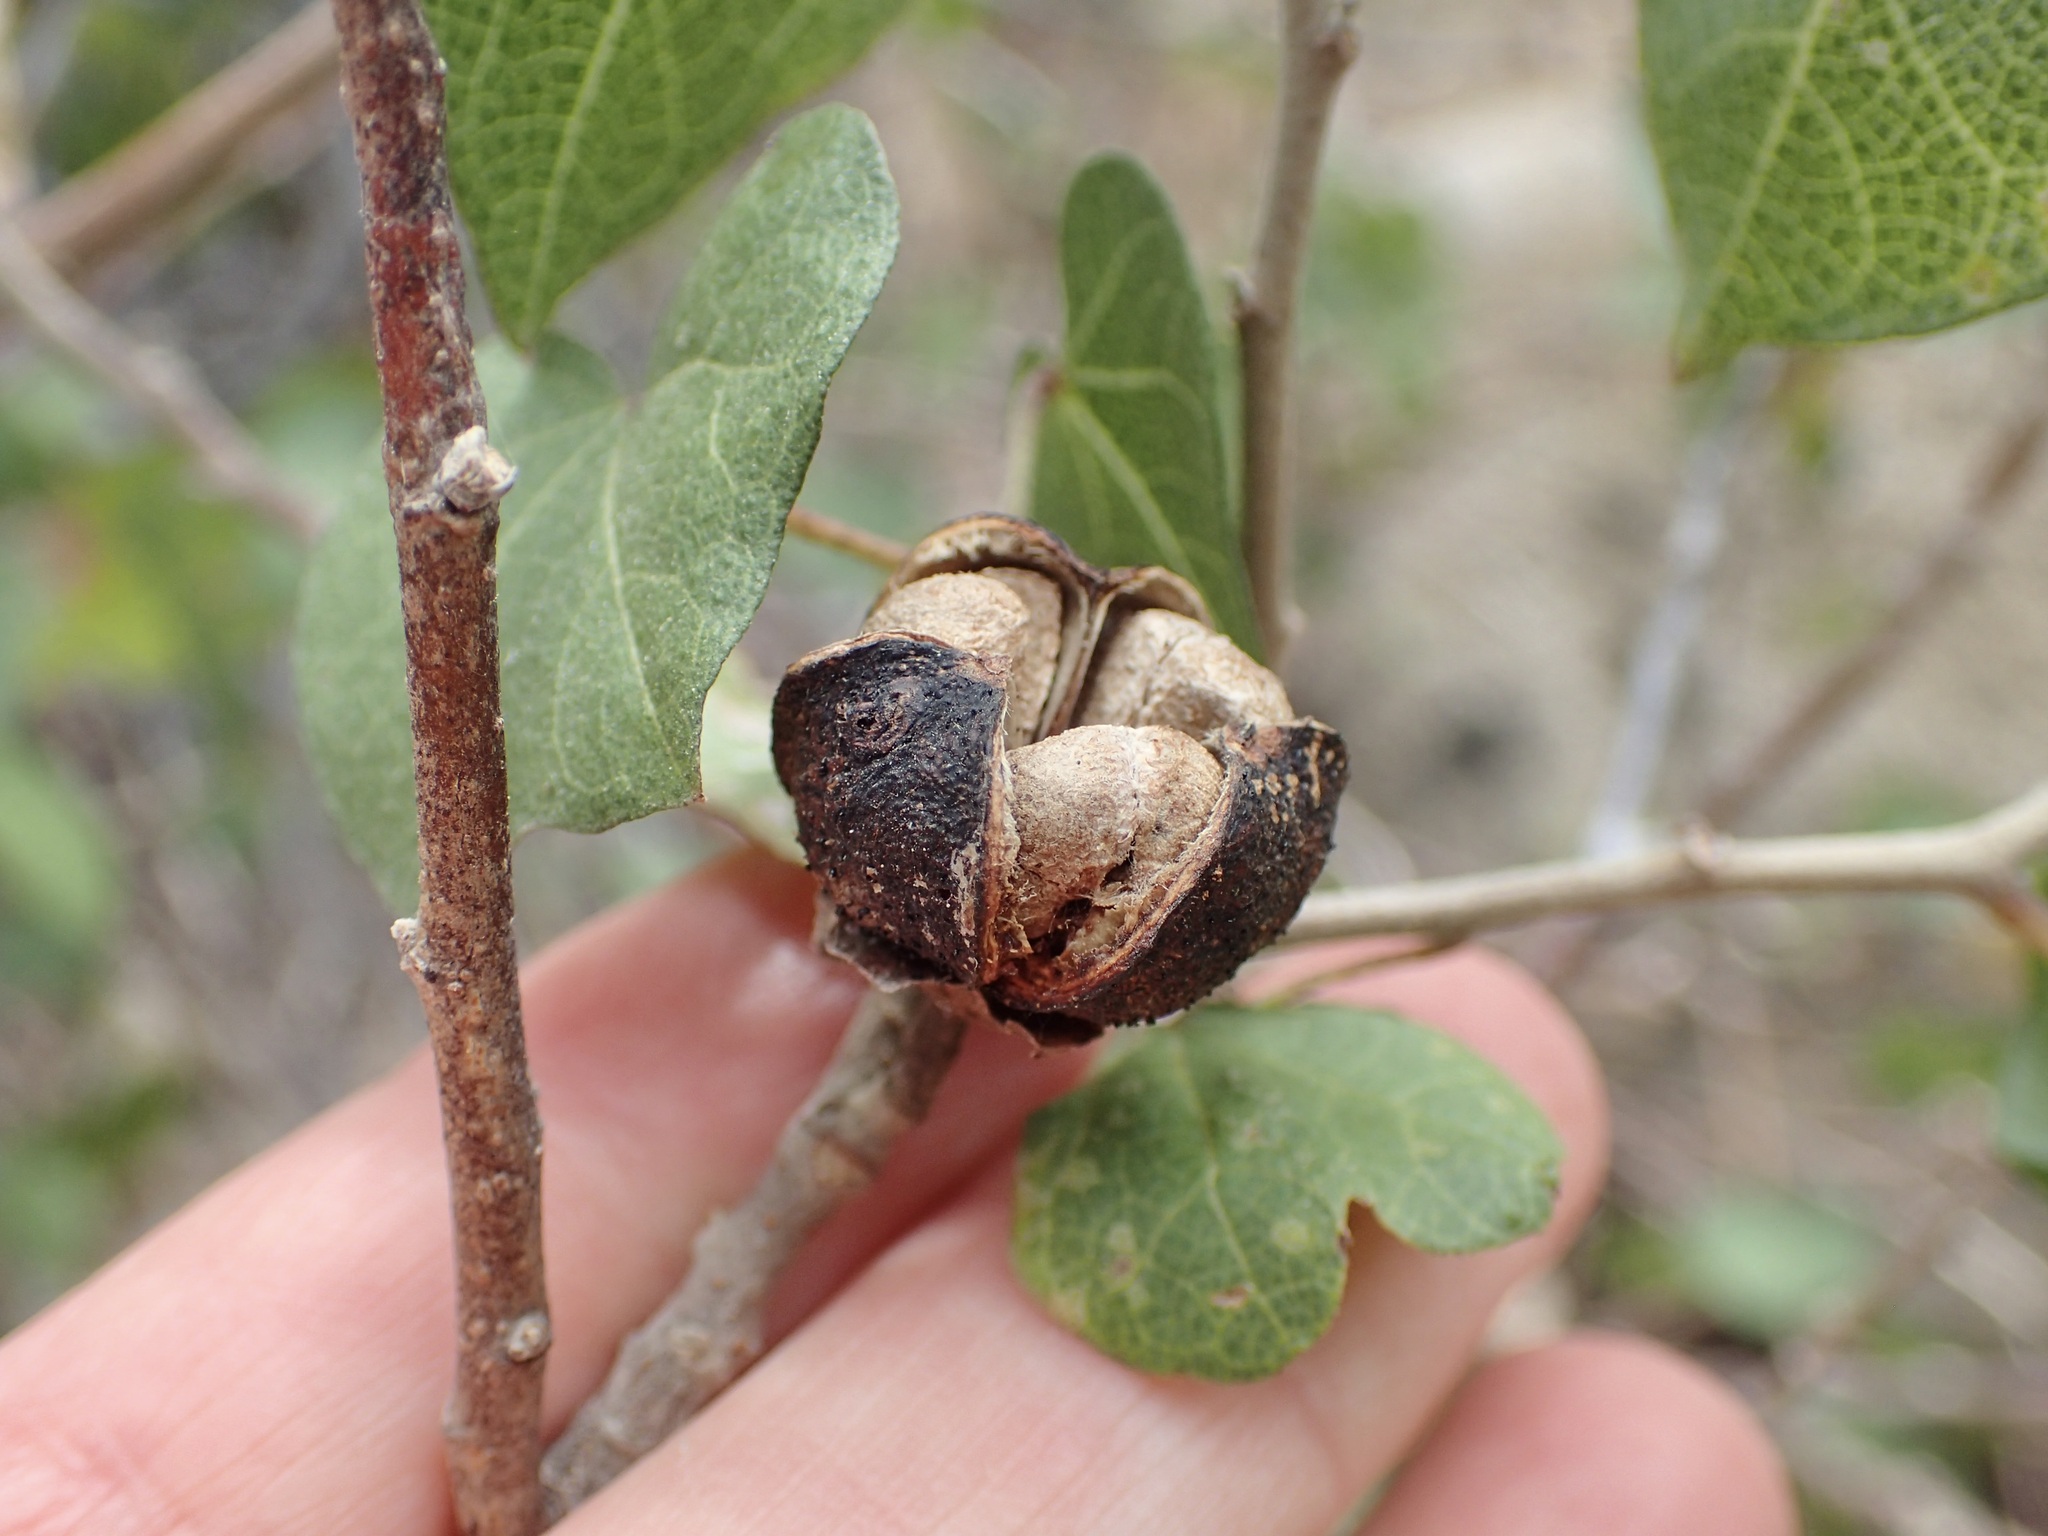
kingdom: Plantae
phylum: Tracheophyta
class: Magnoliopsida
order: Malvales
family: Malvaceae
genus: Gossypium
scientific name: Gossypium harknessii
